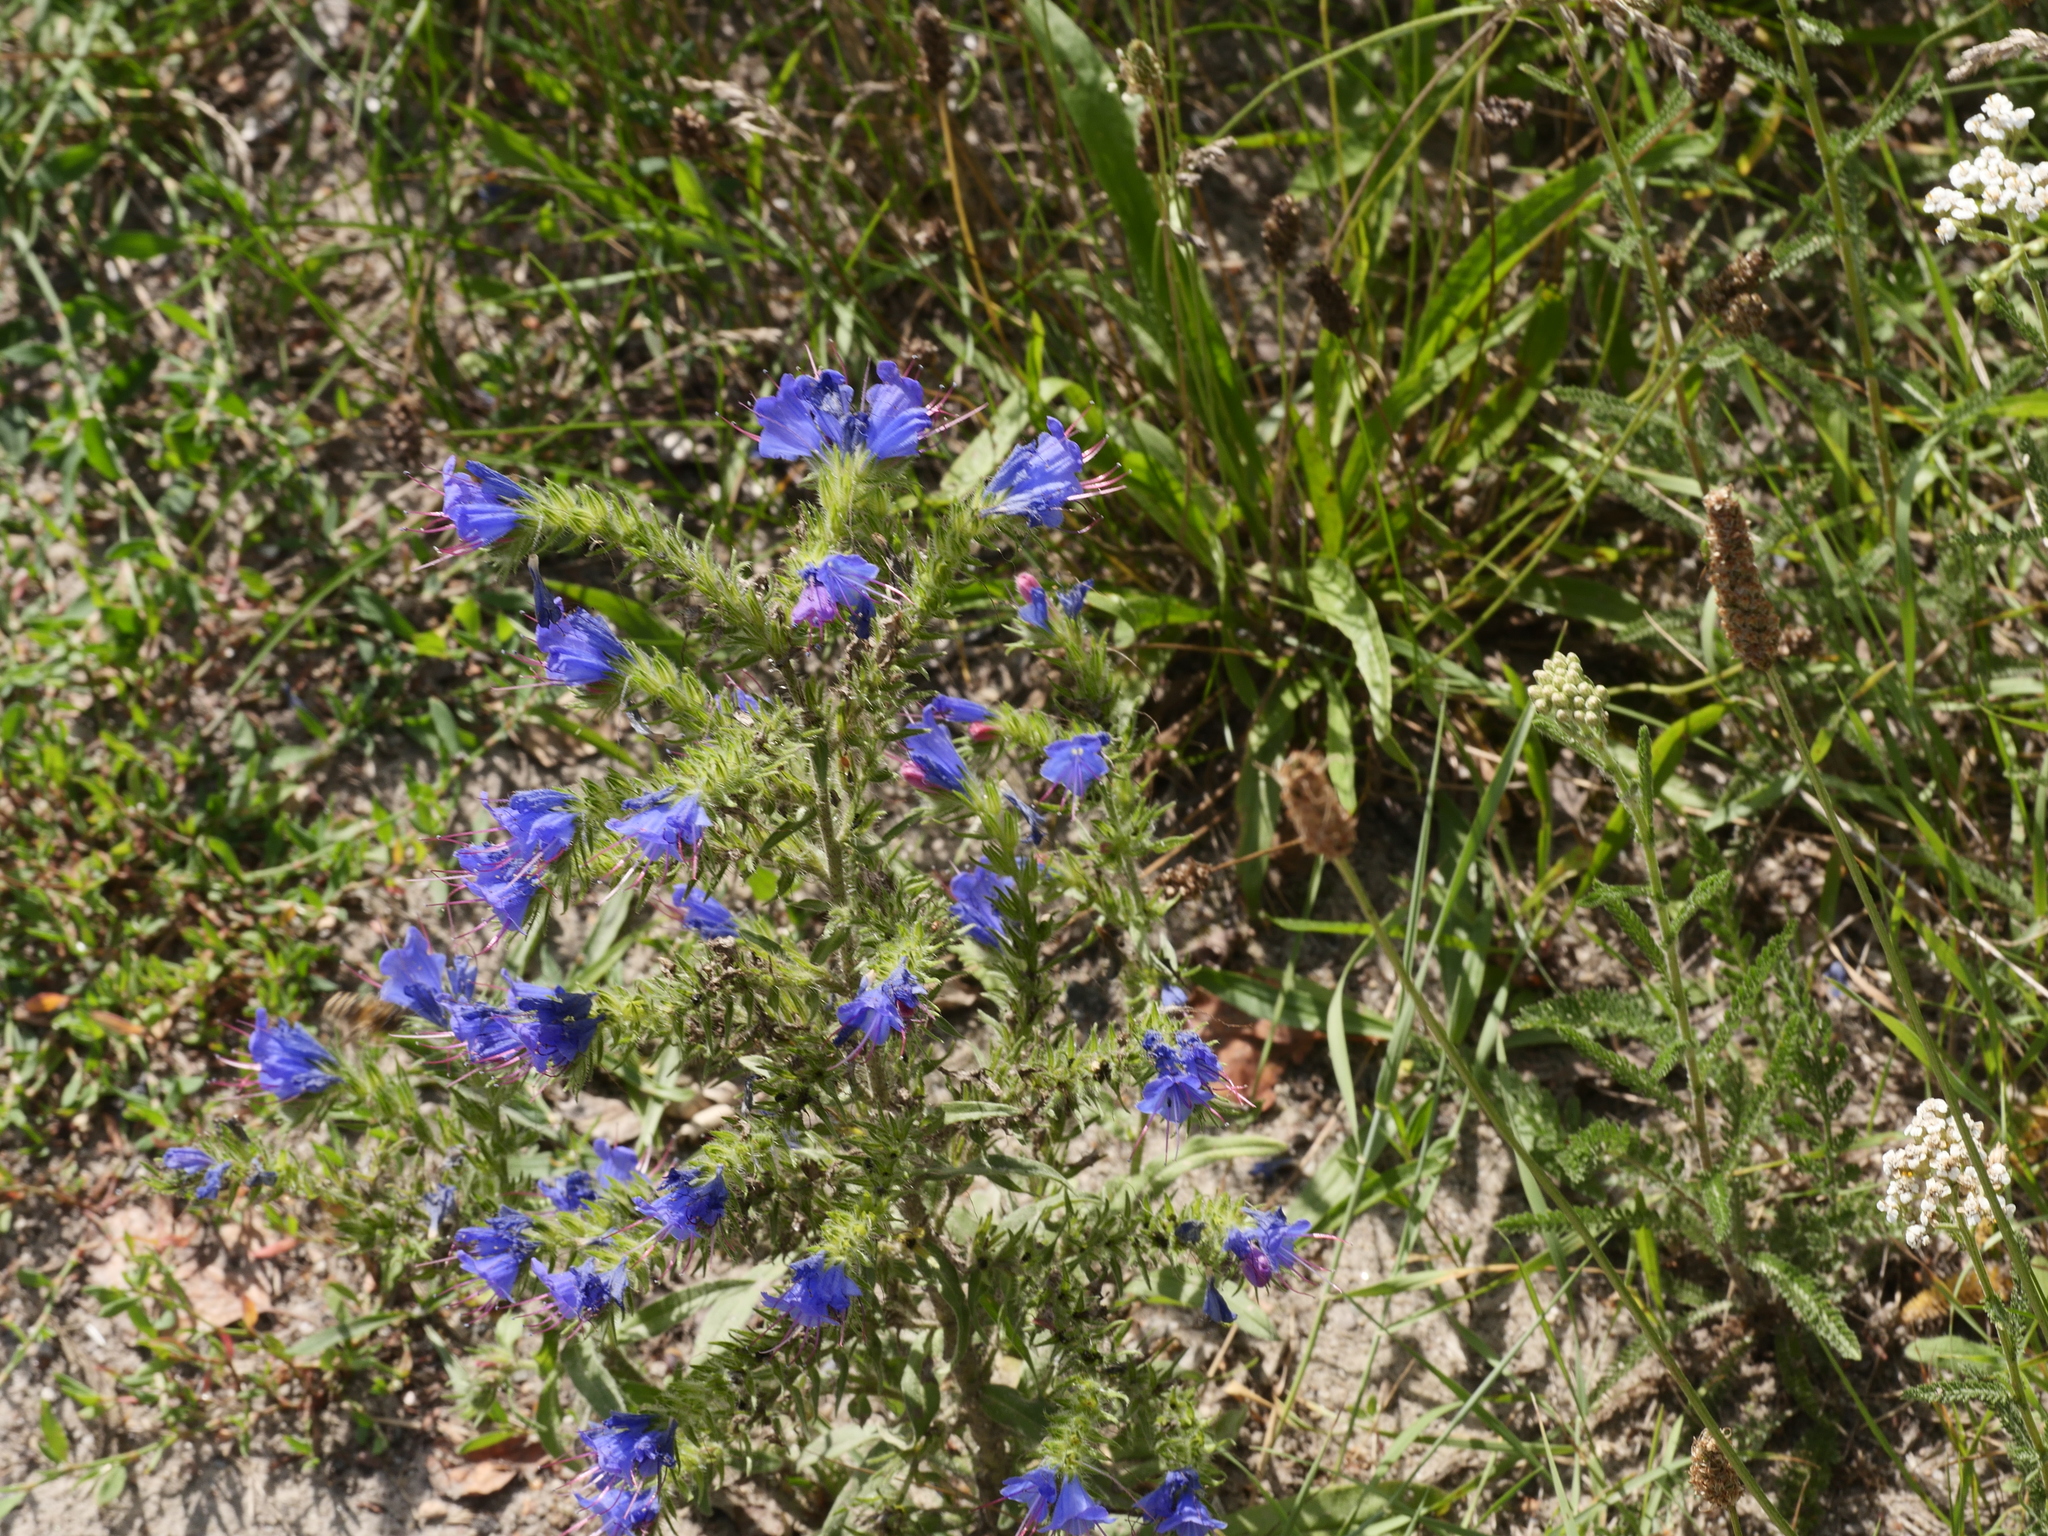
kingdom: Plantae
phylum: Tracheophyta
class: Magnoliopsida
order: Boraginales
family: Boraginaceae
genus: Echium
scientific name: Echium vulgare
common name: Common viper's bugloss
